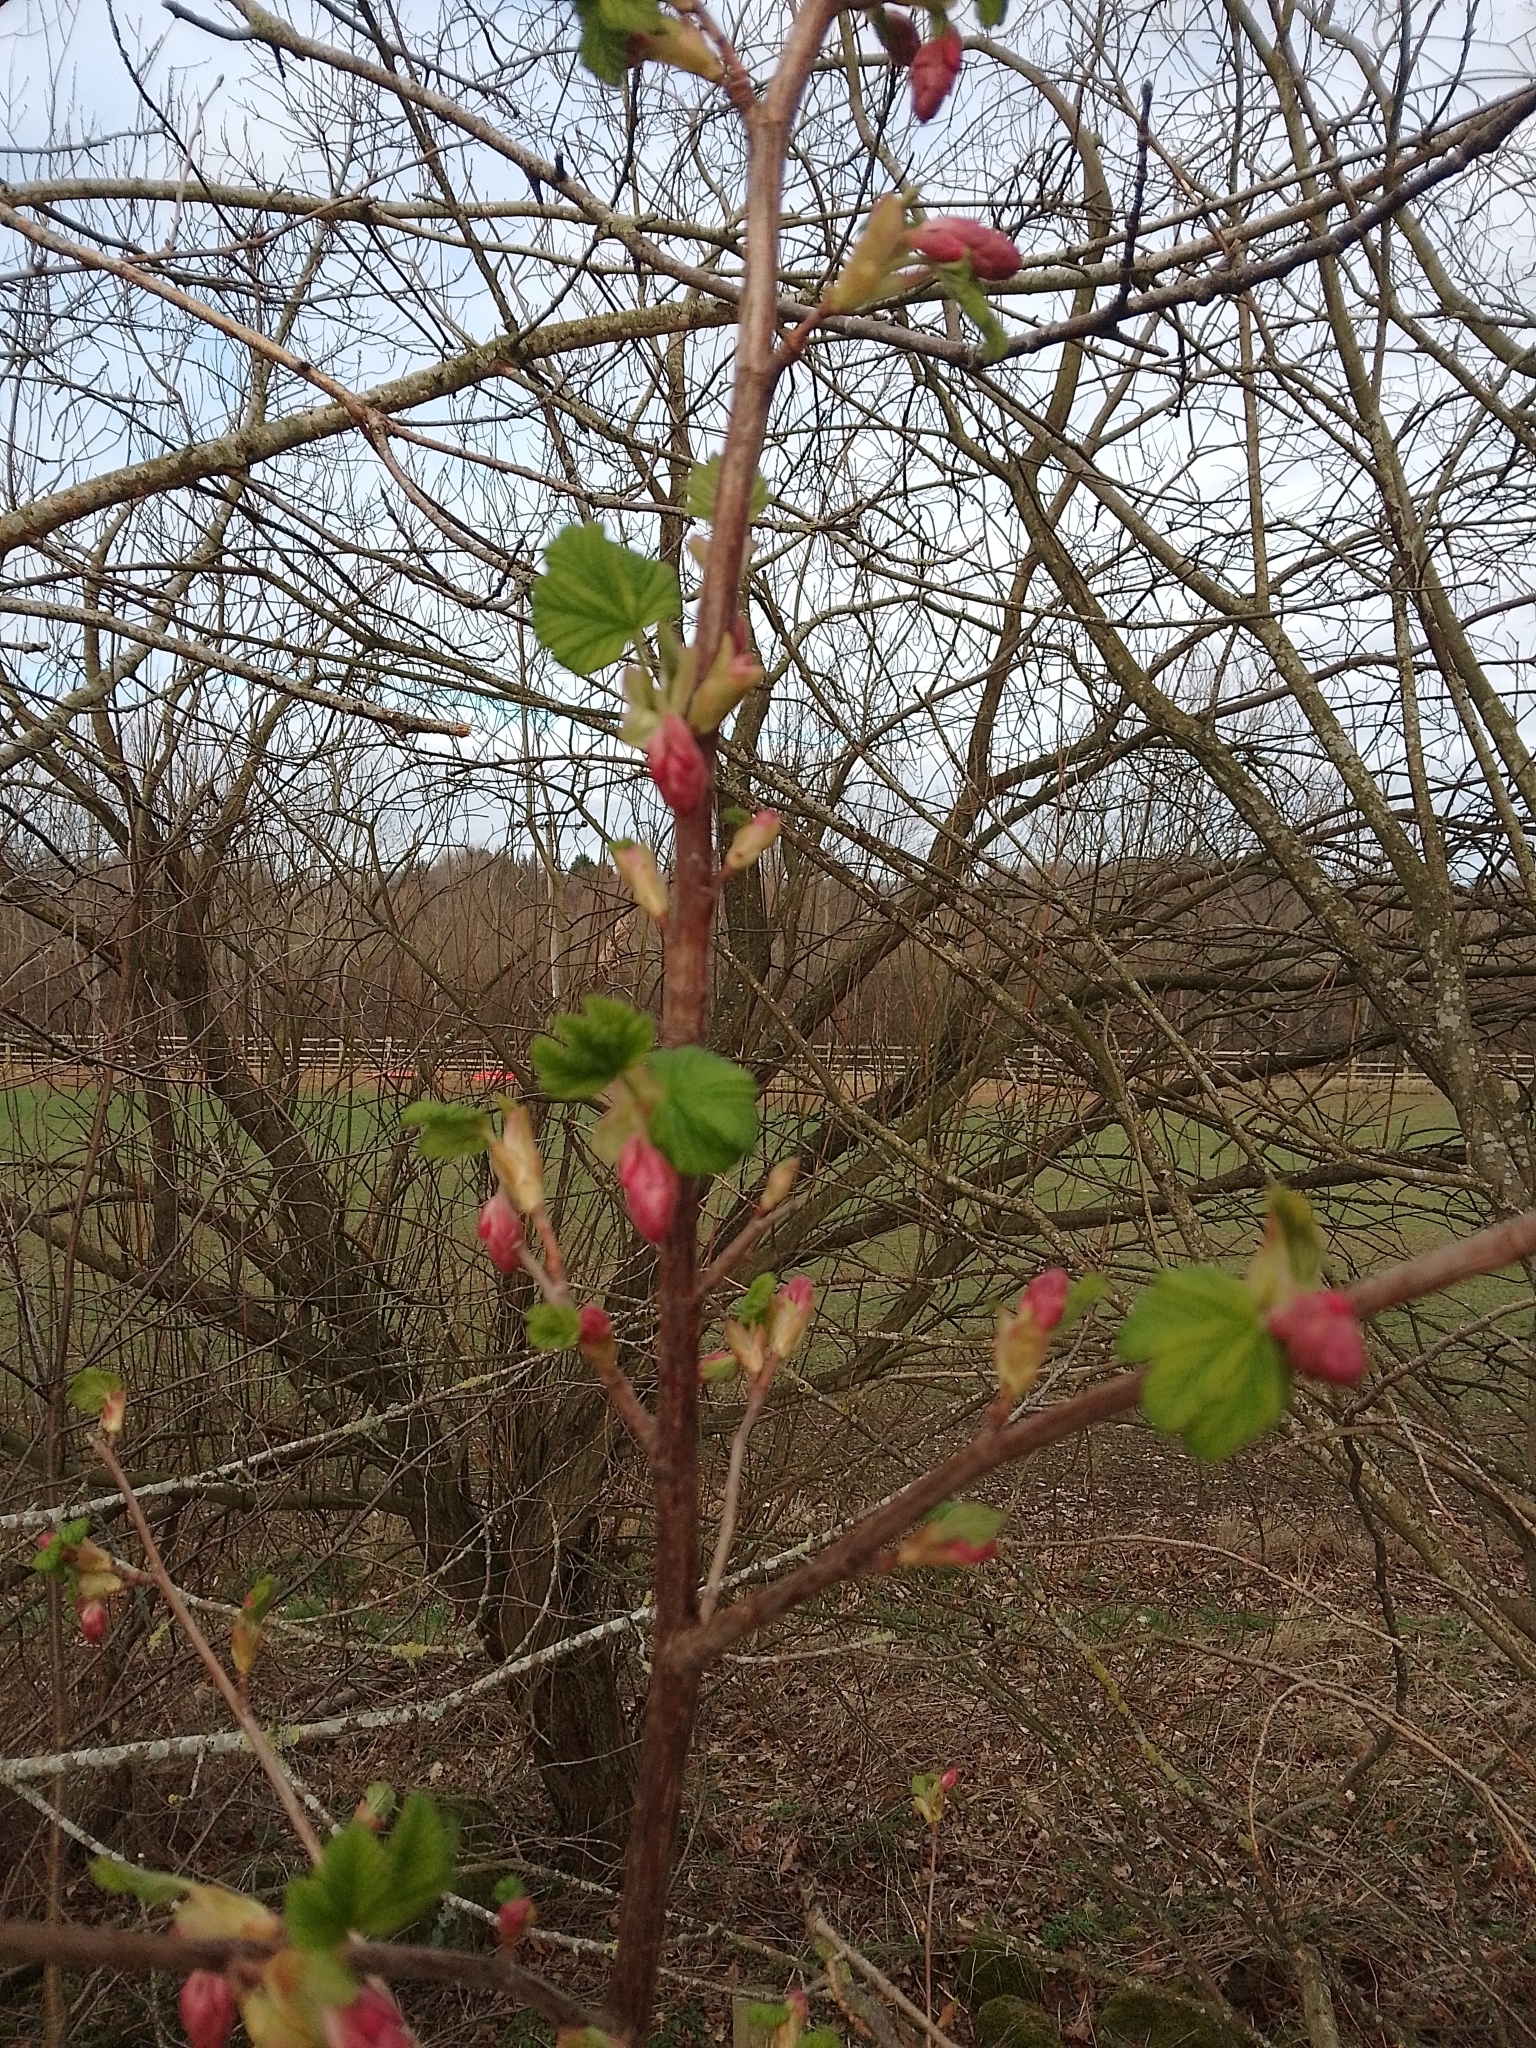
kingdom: Plantae
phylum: Tracheophyta
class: Magnoliopsida
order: Saxifragales
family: Grossulariaceae
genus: Ribes
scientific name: Ribes sanguineum
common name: Flowering currant
